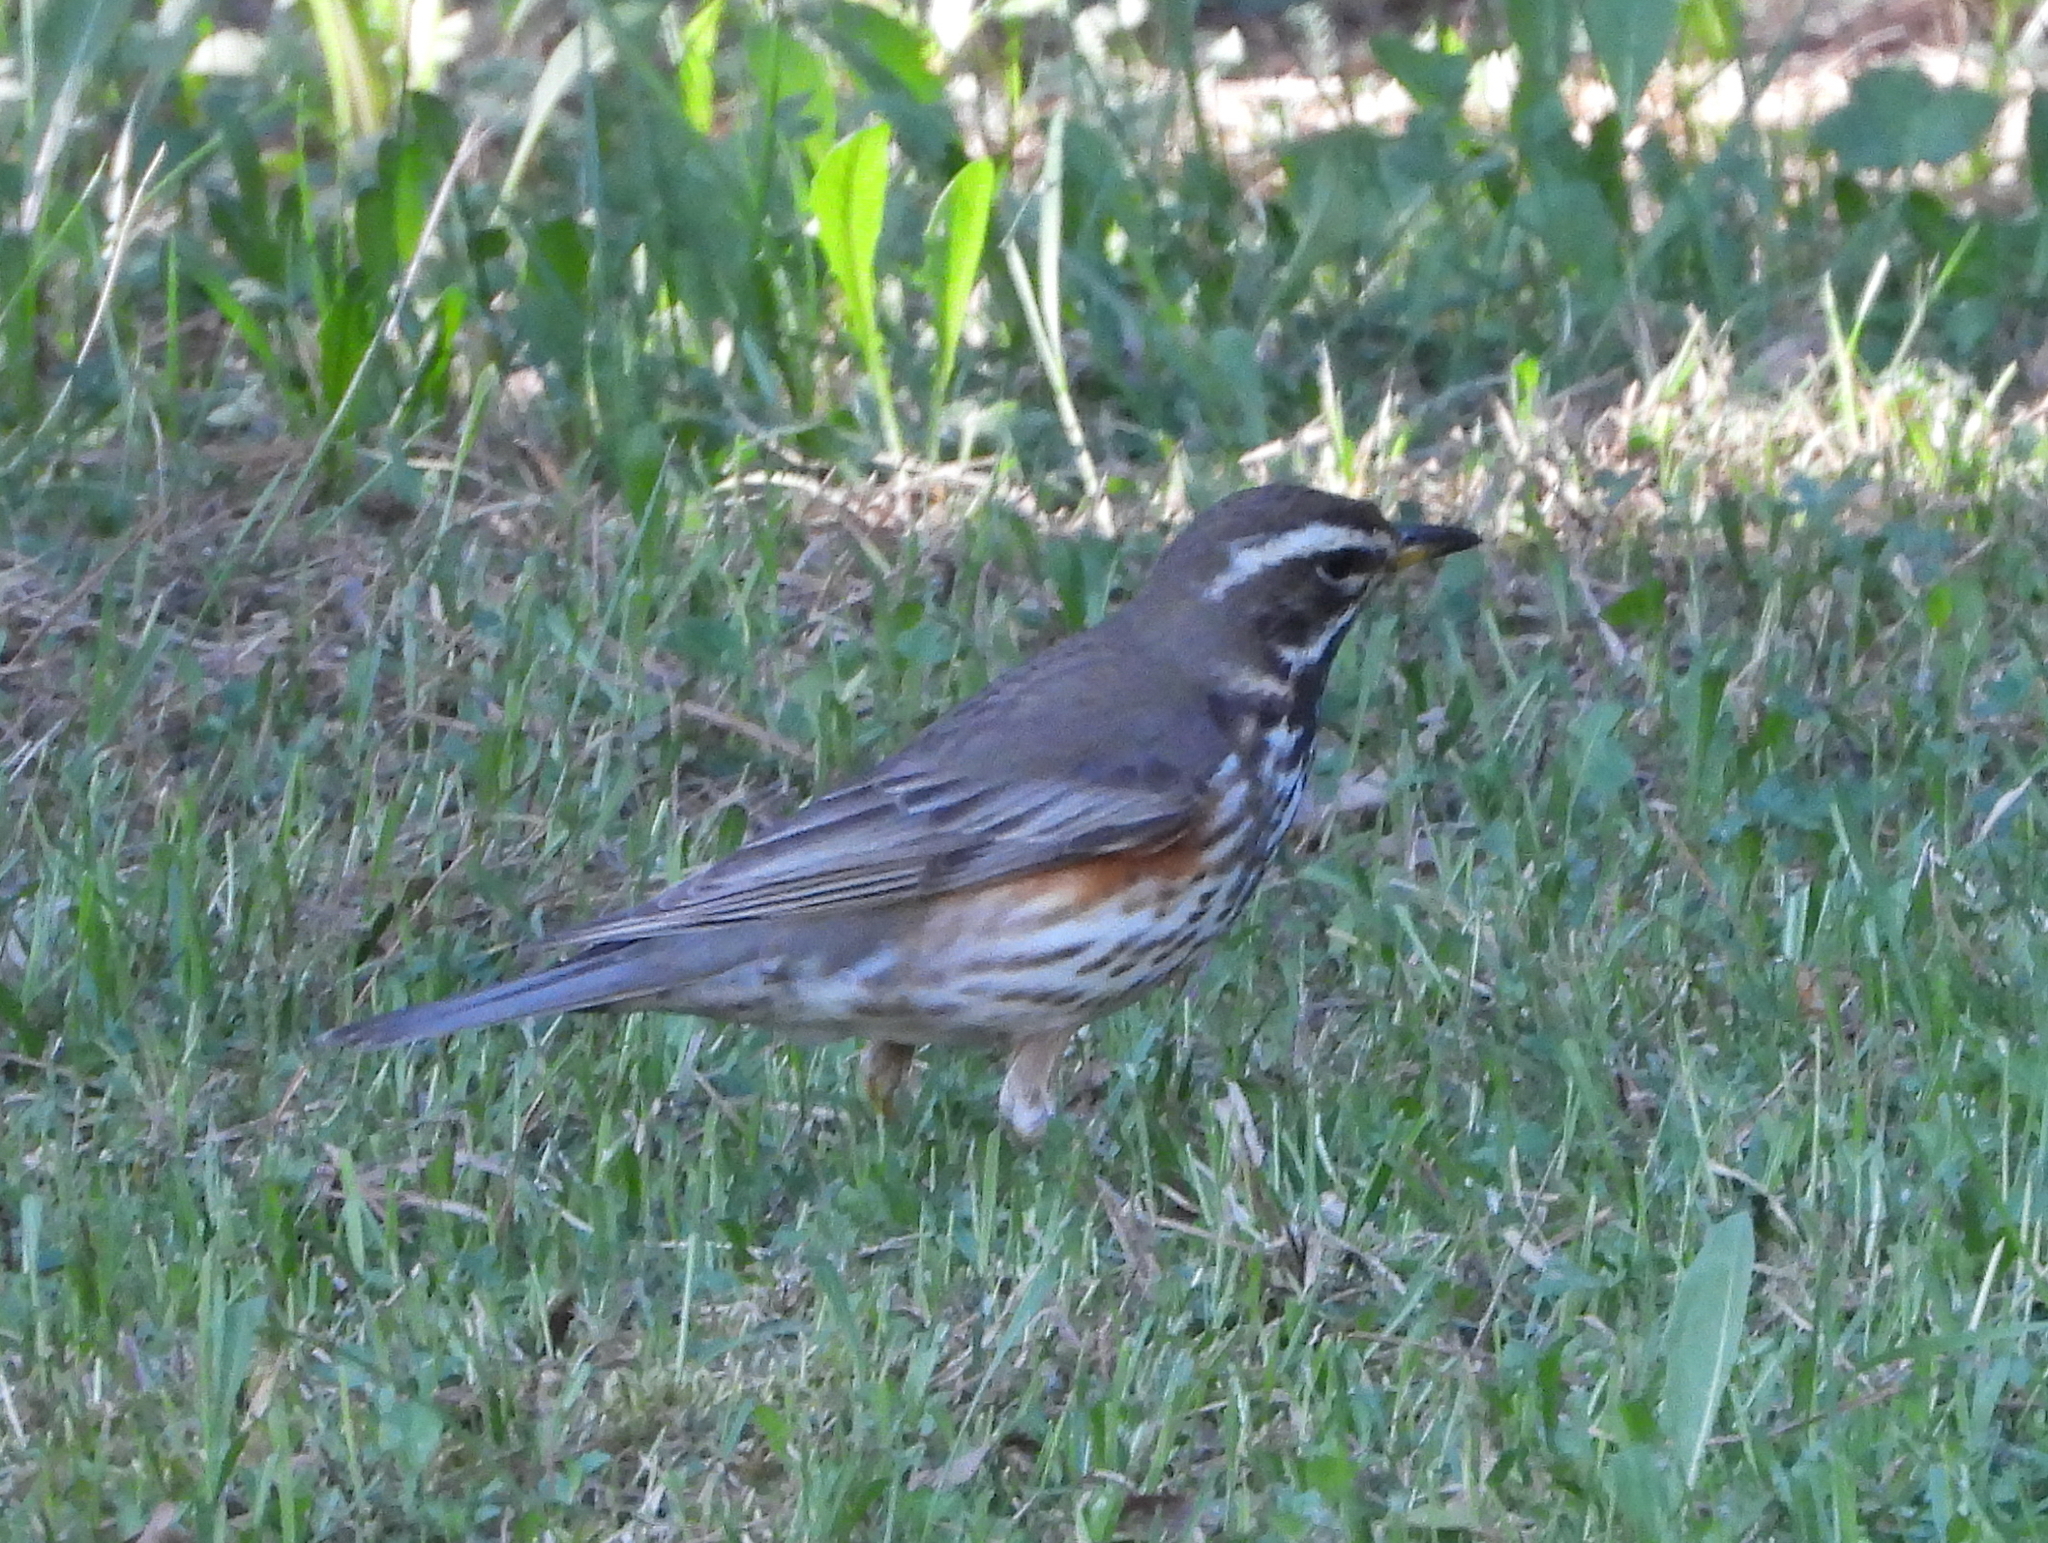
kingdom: Animalia
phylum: Chordata
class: Aves
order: Passeriformes
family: Turdidae
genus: Turdus
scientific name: Turdus iliacus
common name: Redwing
